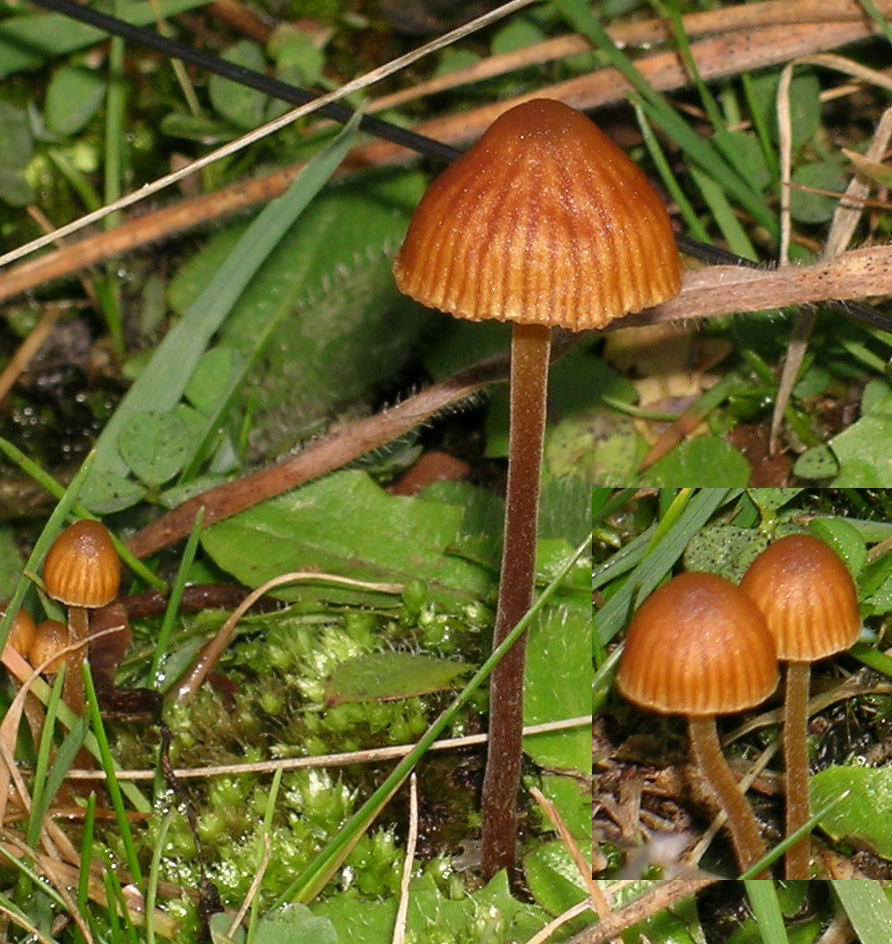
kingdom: Fungi
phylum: Basidiomycota
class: Agaricomycetes
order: Agaricales
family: Hymenogastraceae
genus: Galerina
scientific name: Galerina vittiformis
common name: Hairy leg bell
